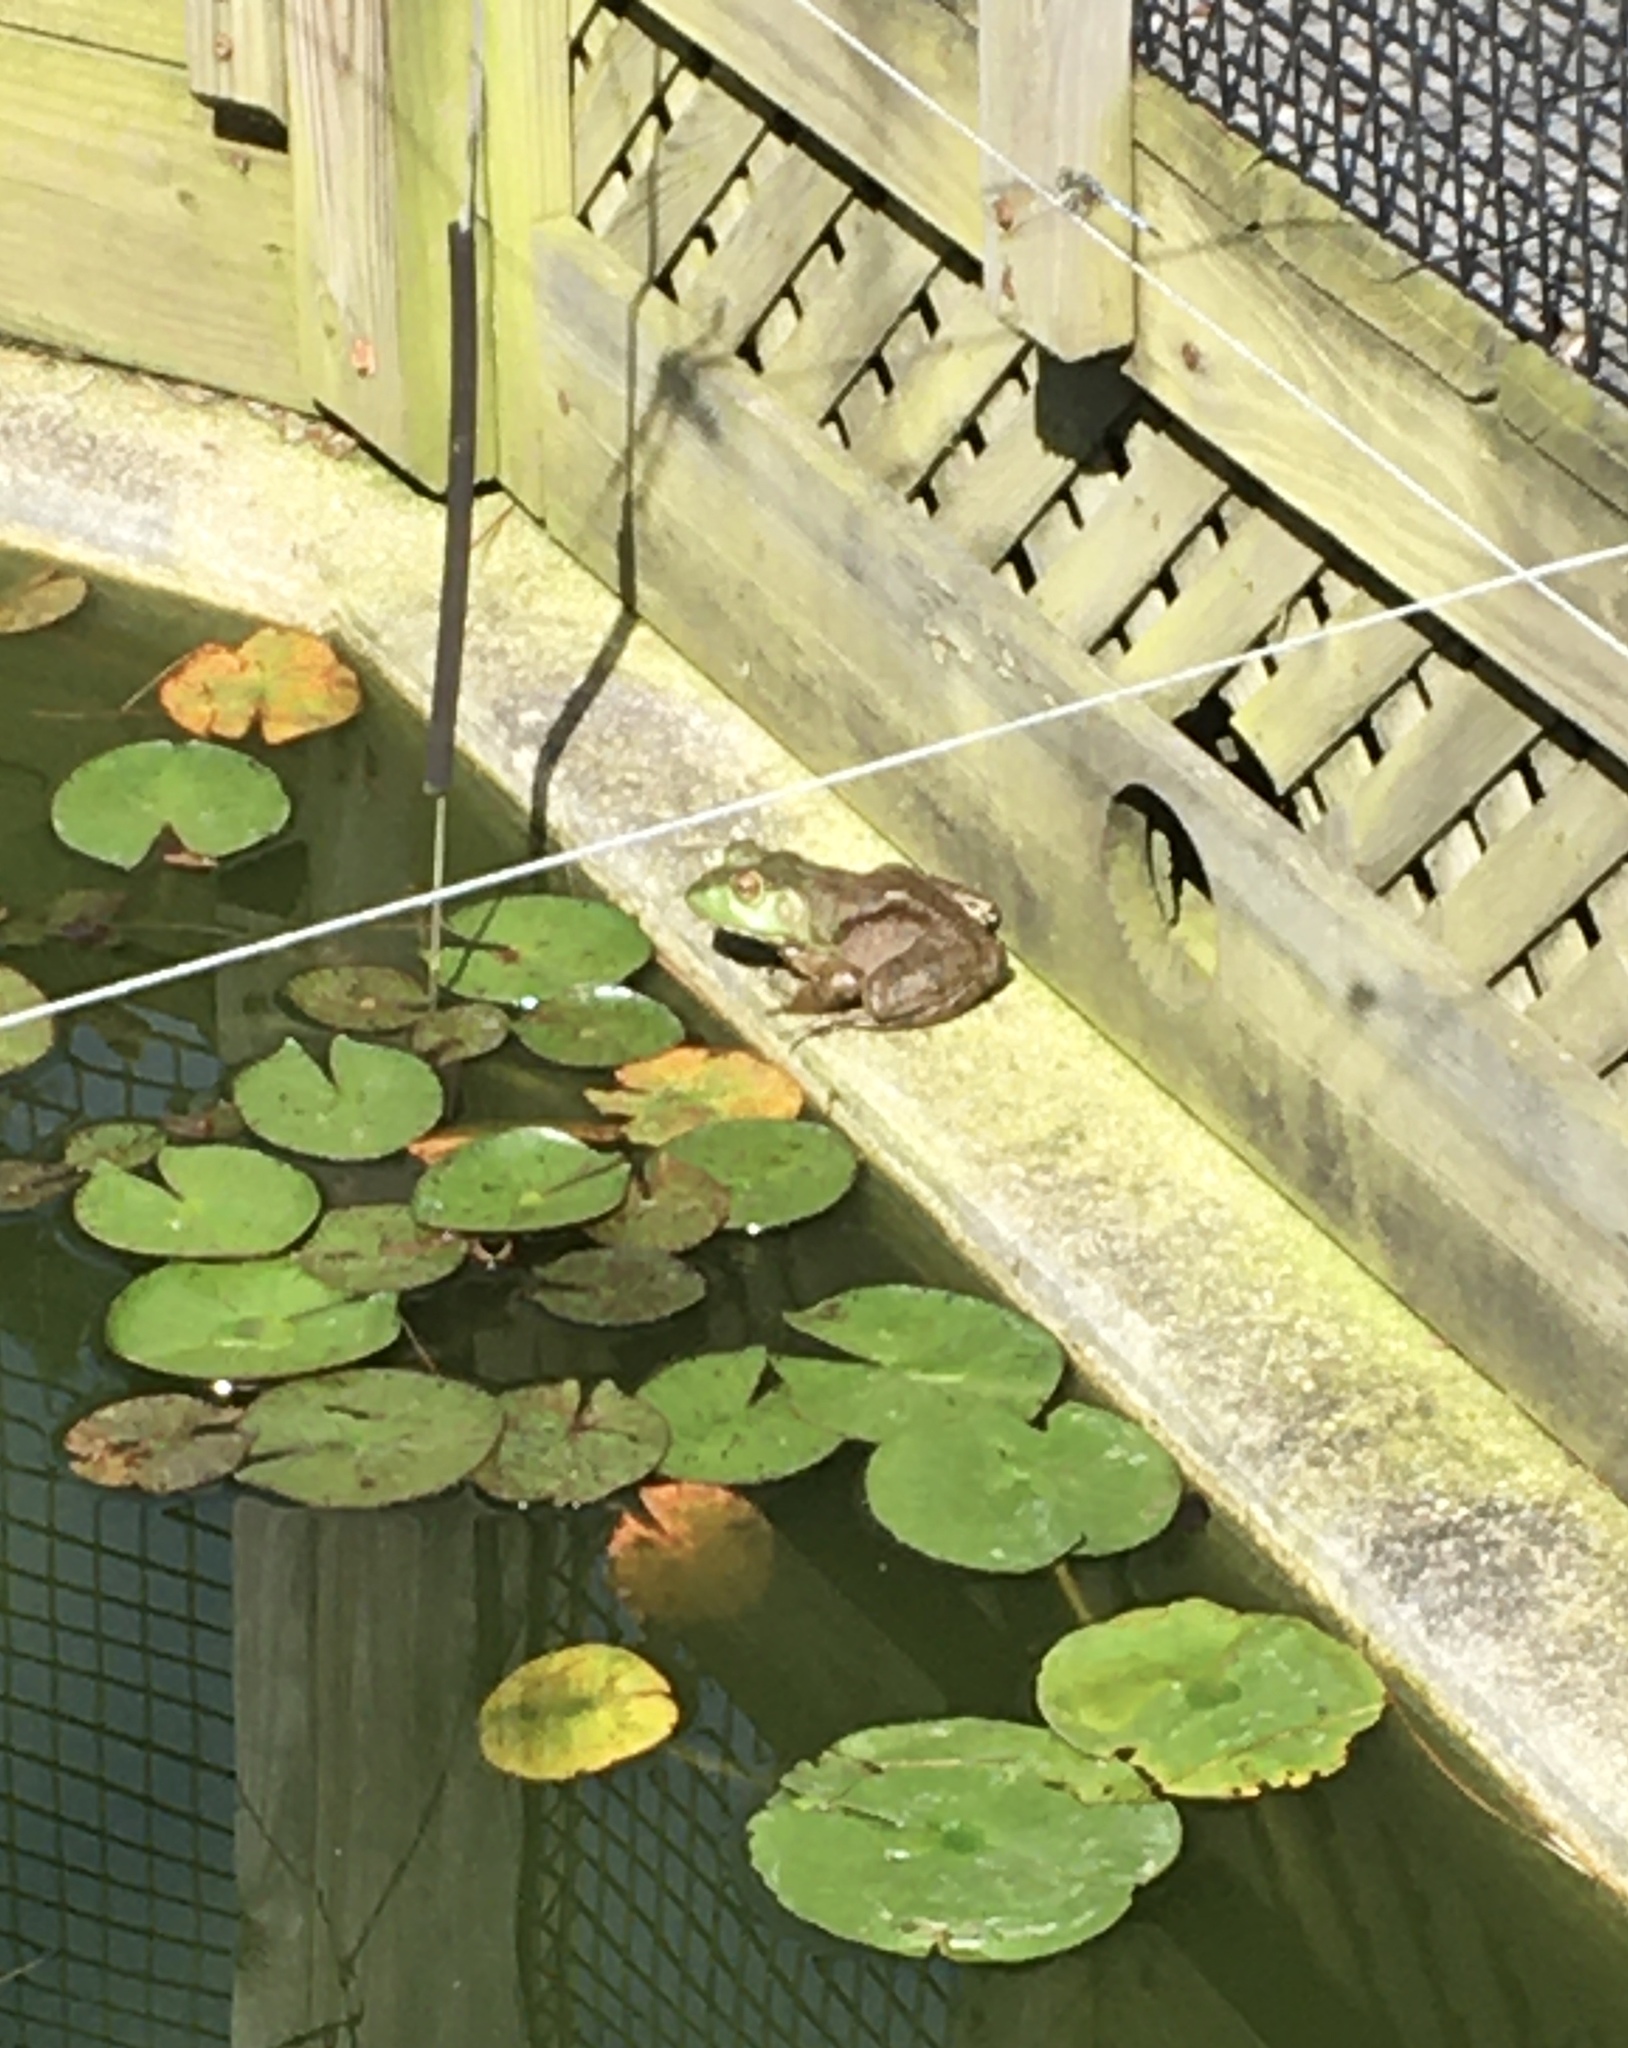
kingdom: Animalia
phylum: Chordata
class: Amphibia
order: Anura
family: Ranidae
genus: Lithobates
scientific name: Lithobates catesbeianus
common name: American bullfrog
